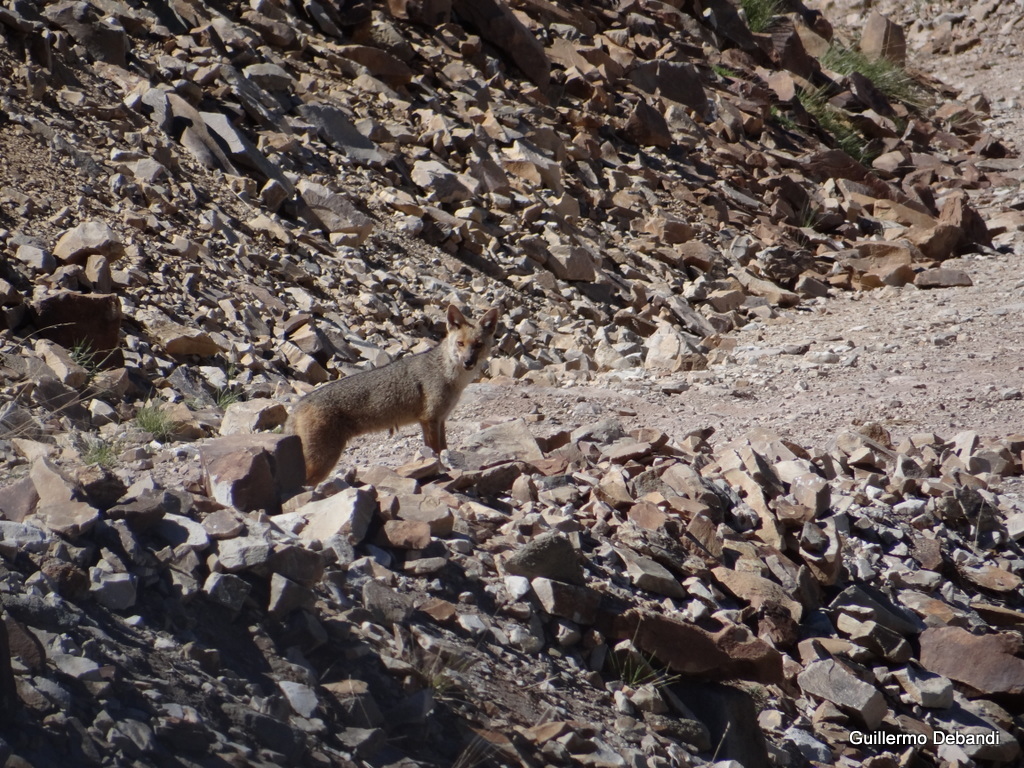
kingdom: Animalia
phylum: Chordata
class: Mammalia
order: Carnivora
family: Canidae
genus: Lycalopex
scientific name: Lycalopex culpaeus
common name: Culpeo
